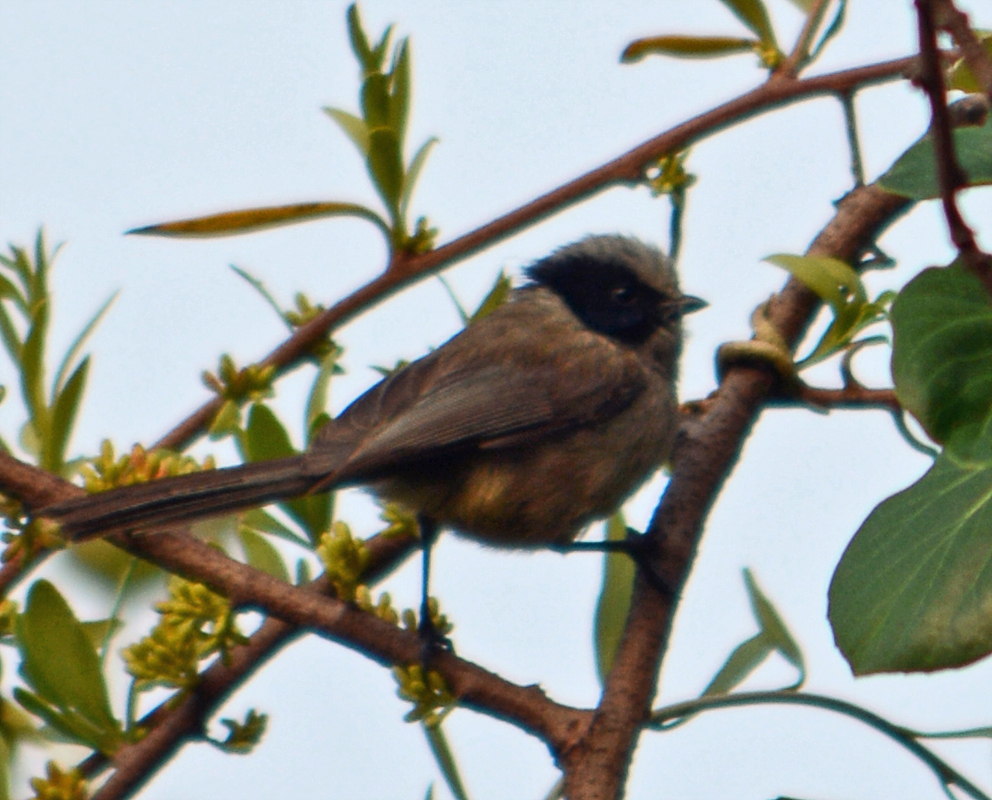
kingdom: Animalia
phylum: Chordata
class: Aves
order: Passeriformes
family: Aegithalidae
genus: Psaltriparus
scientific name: Psaltriparus minimus
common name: American bushtit
